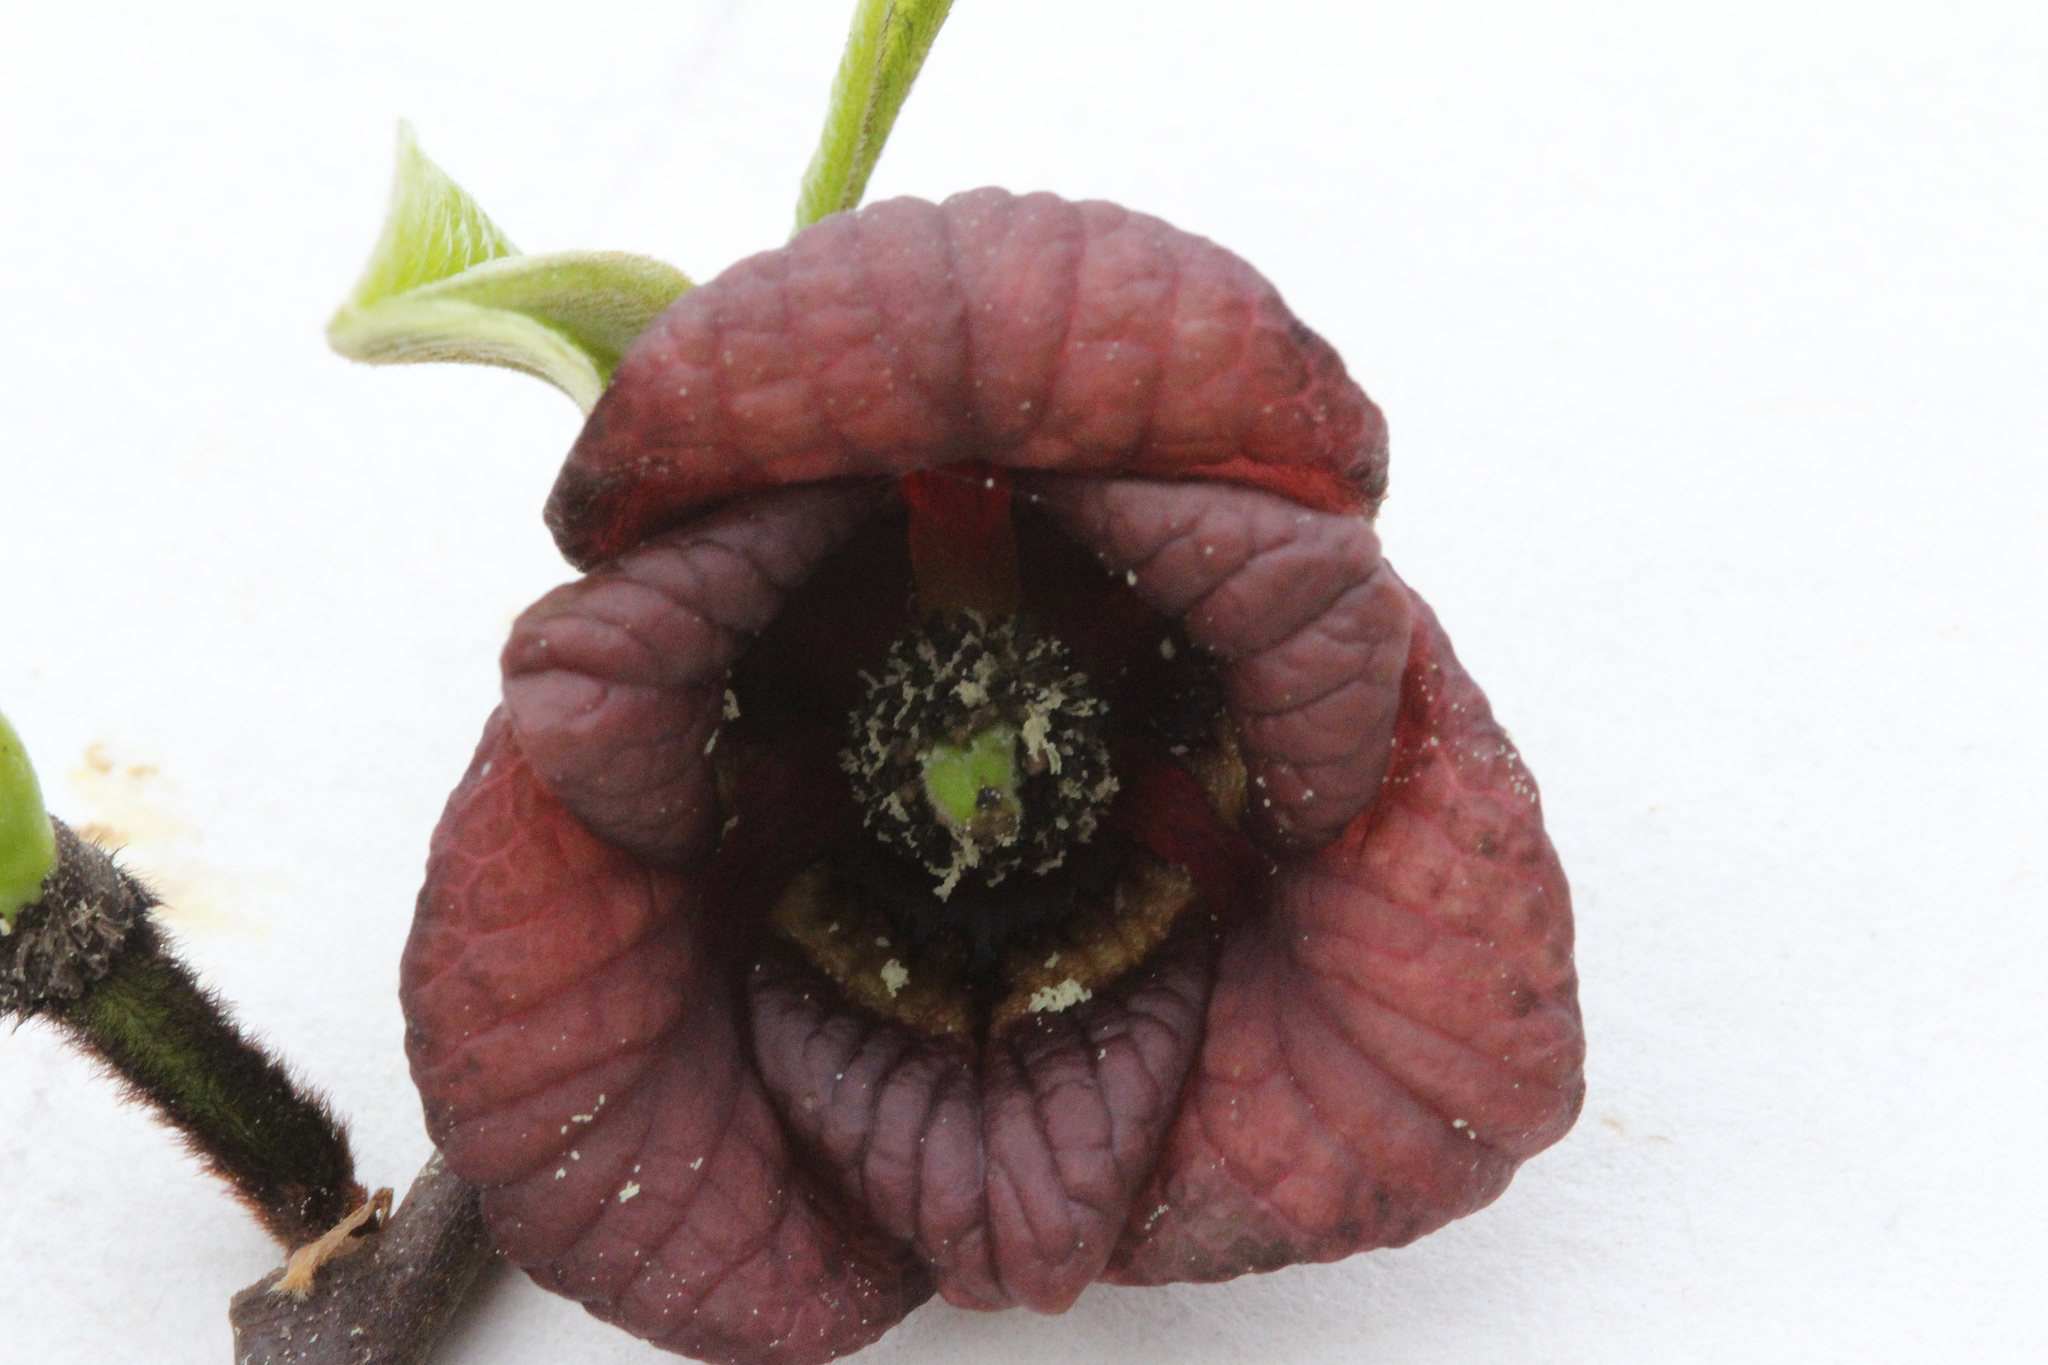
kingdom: Plantae
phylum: Tracheophyta
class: Magnoliopsida
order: Magnoliales
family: Annonaceae
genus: Asimina
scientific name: Asimina triloba
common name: Dog-banana
